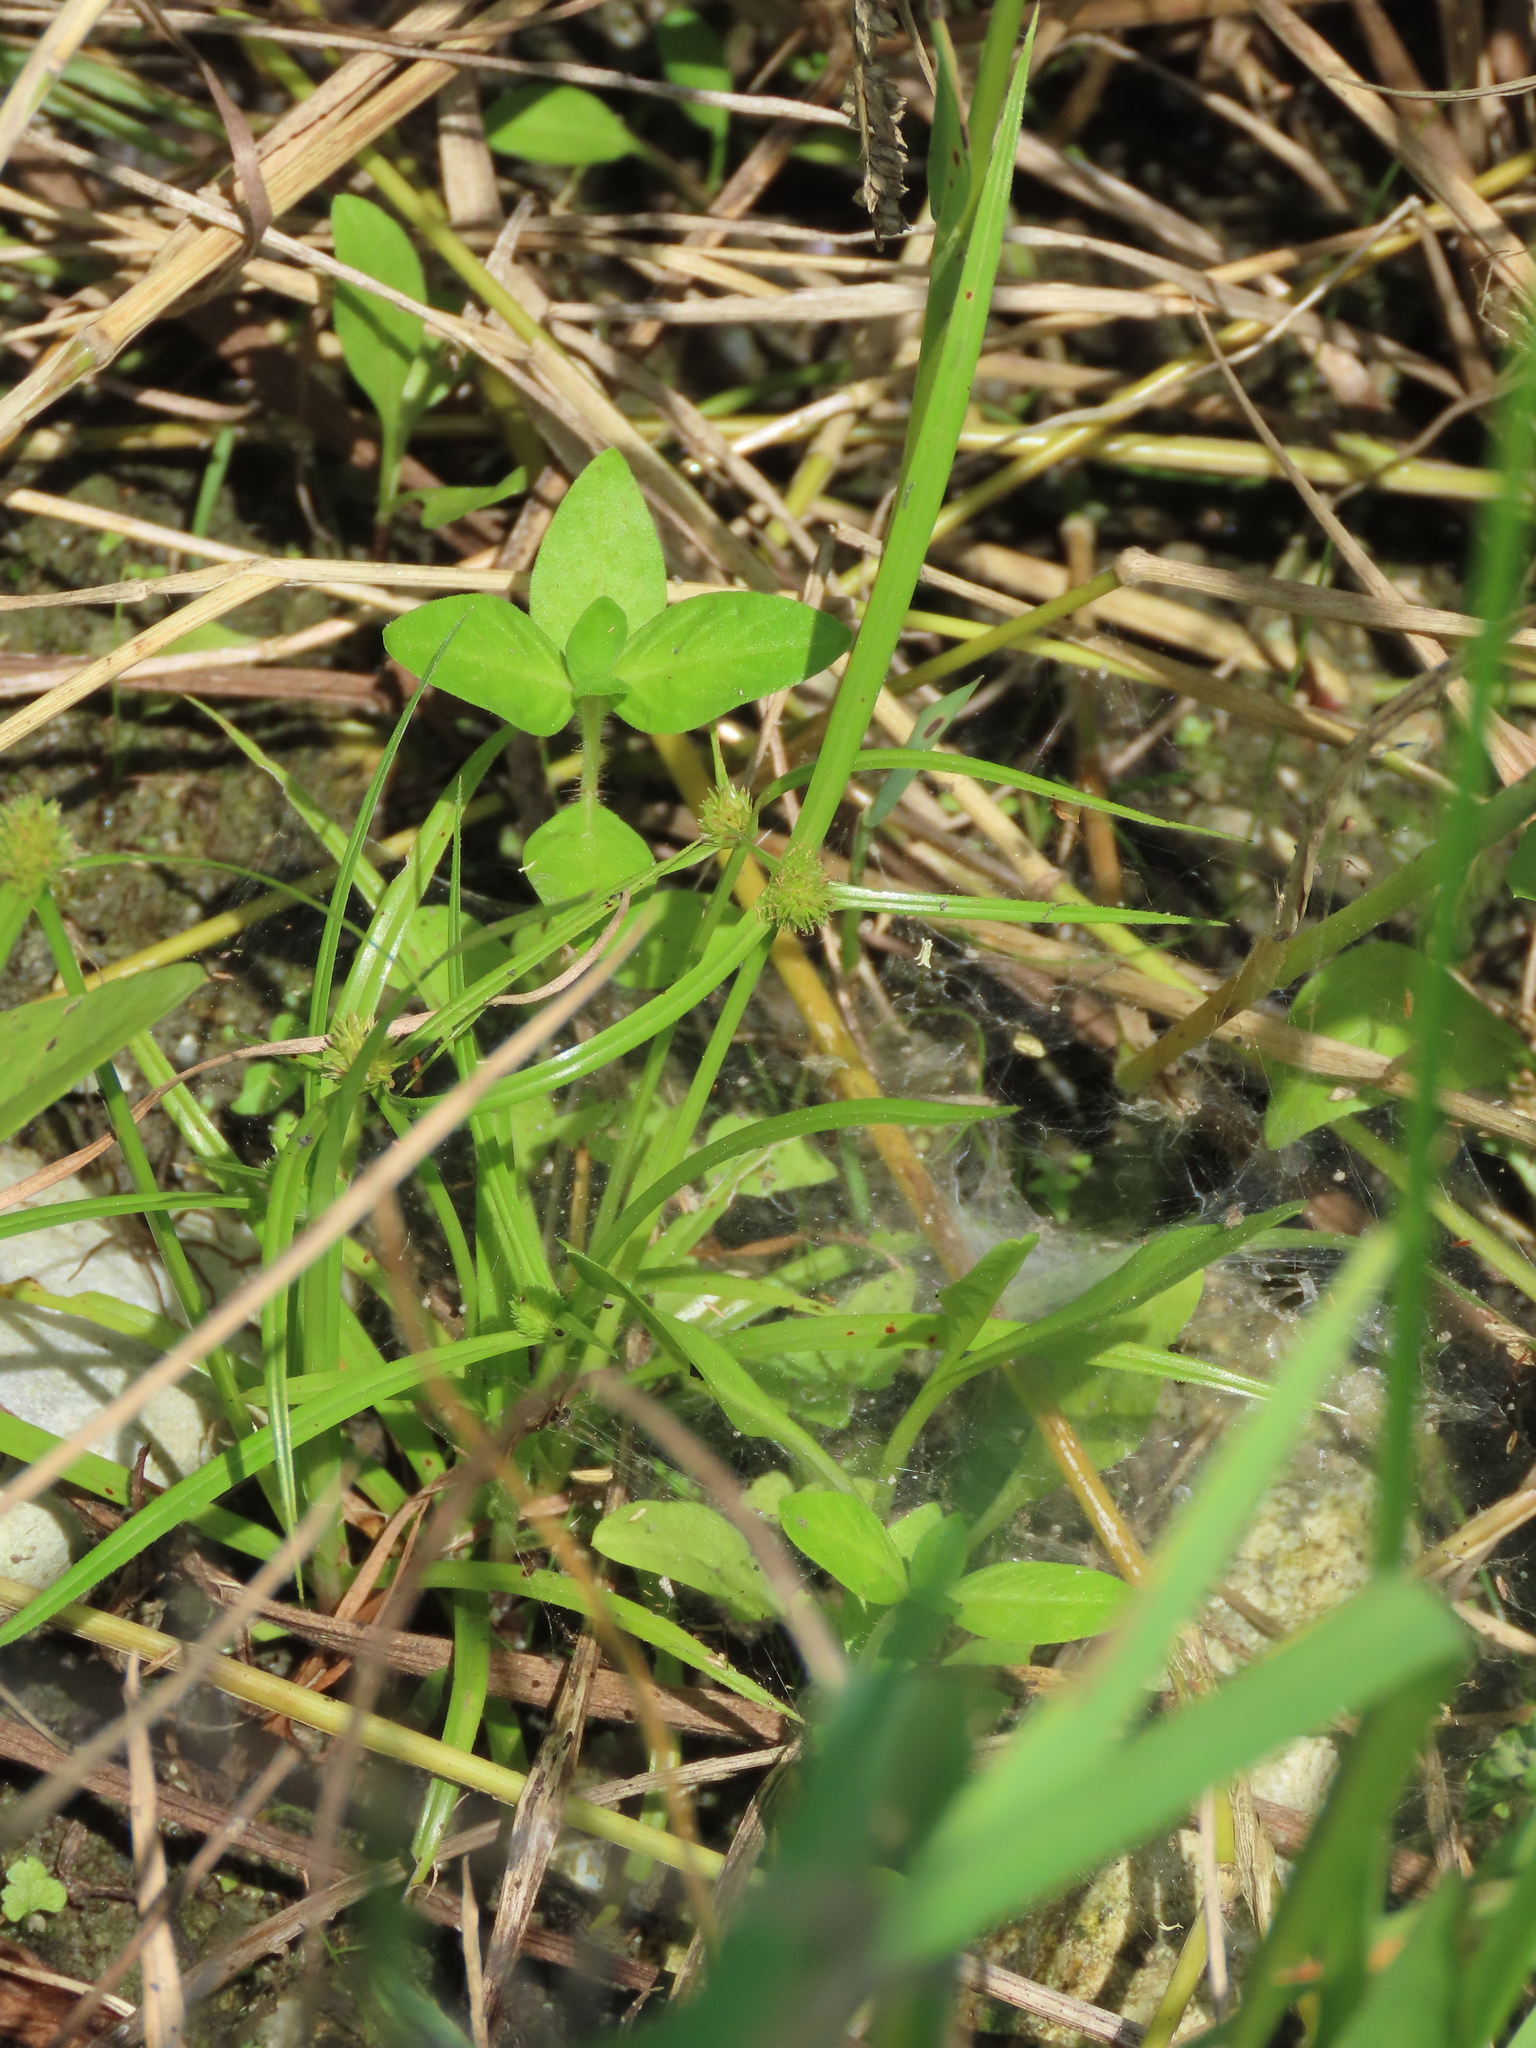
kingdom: Plantae
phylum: Tracheophyta
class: Liliopsida
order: Poales
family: Cyperaceae
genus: Cyperus
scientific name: Cyperus brevifolius
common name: Globe kyllinga
